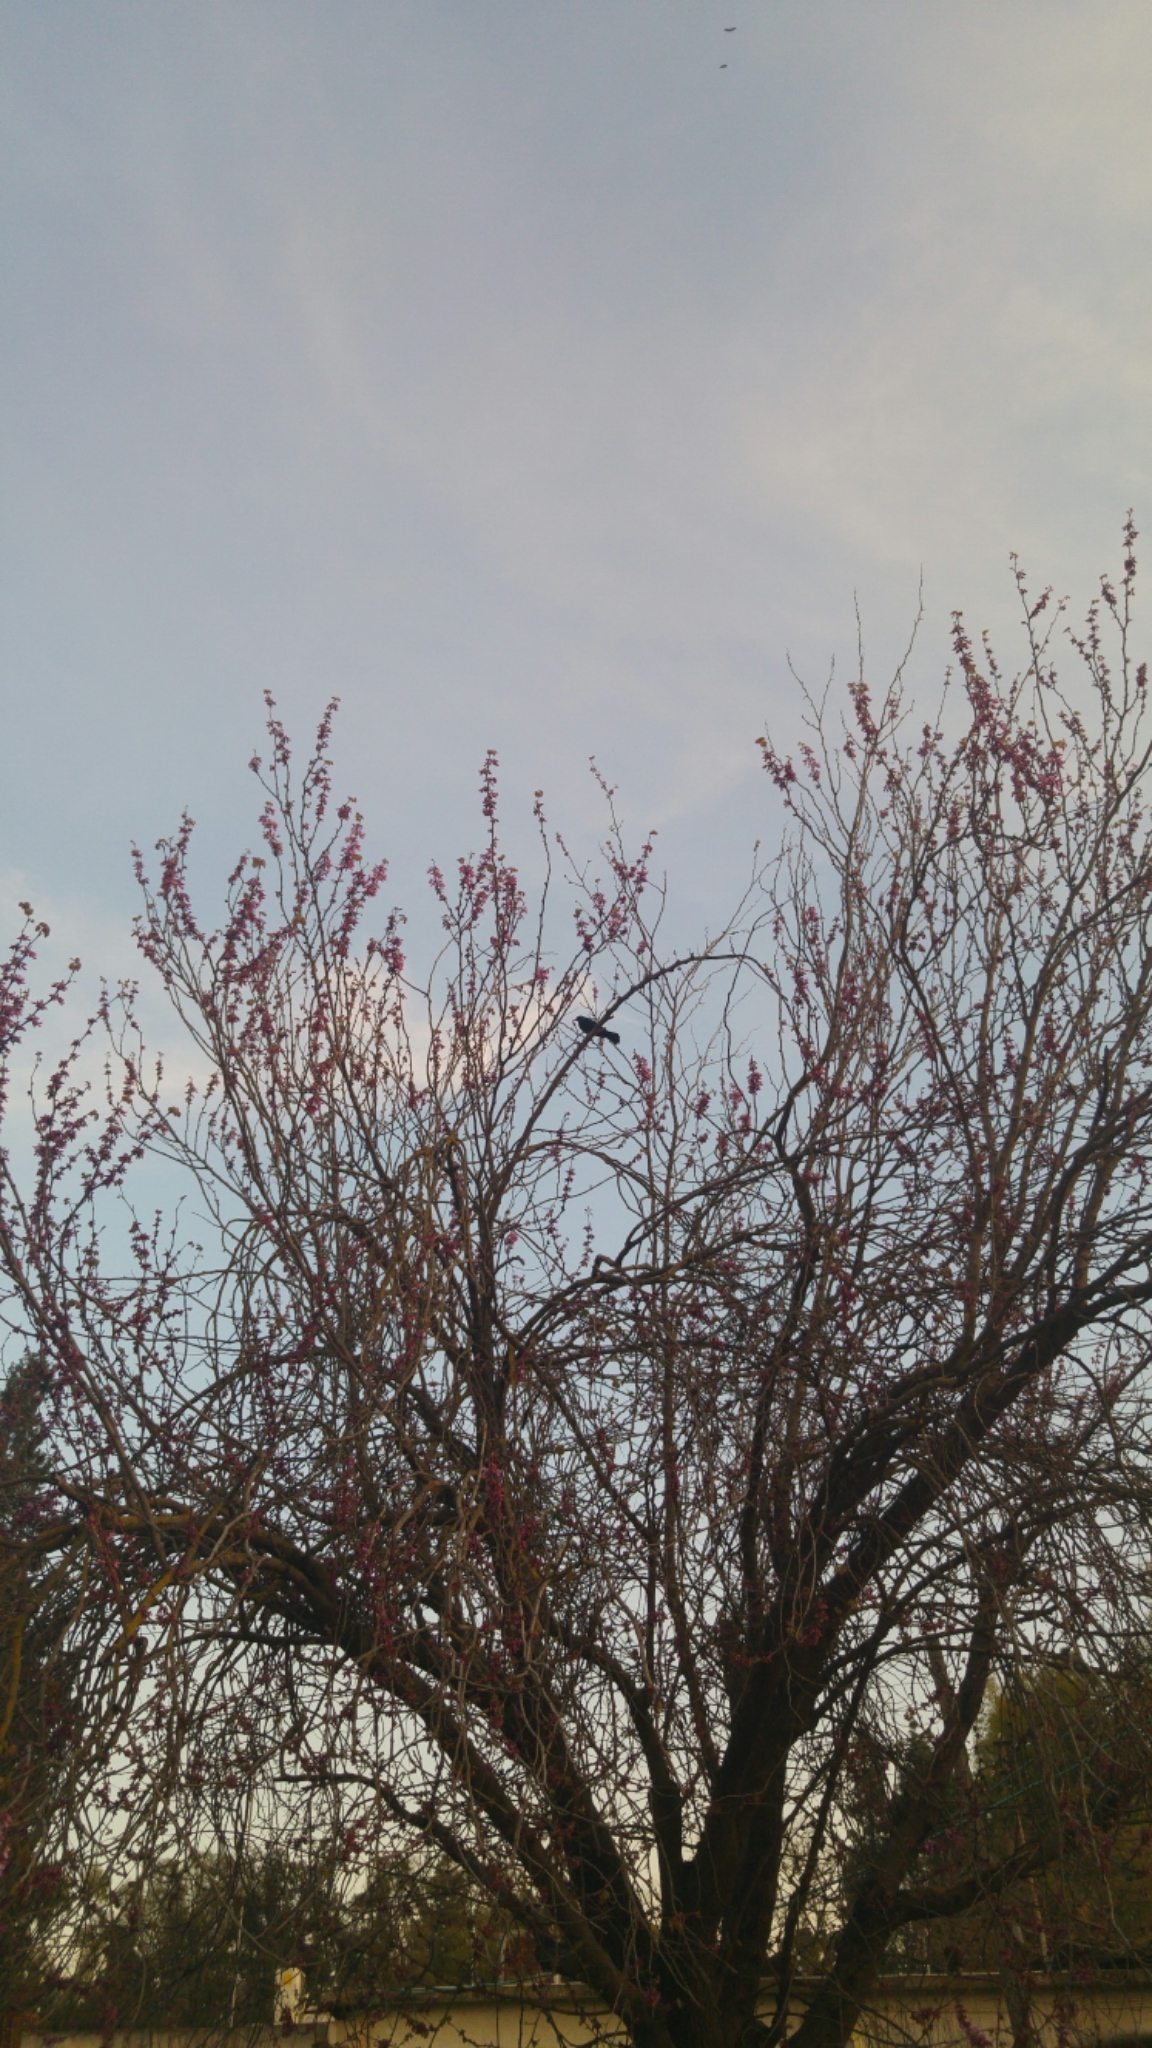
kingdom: Animalia
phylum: Chordata
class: Aves
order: Passeriformes
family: Turdidae
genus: Turdus
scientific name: Turdus merula
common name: Common blackbird
